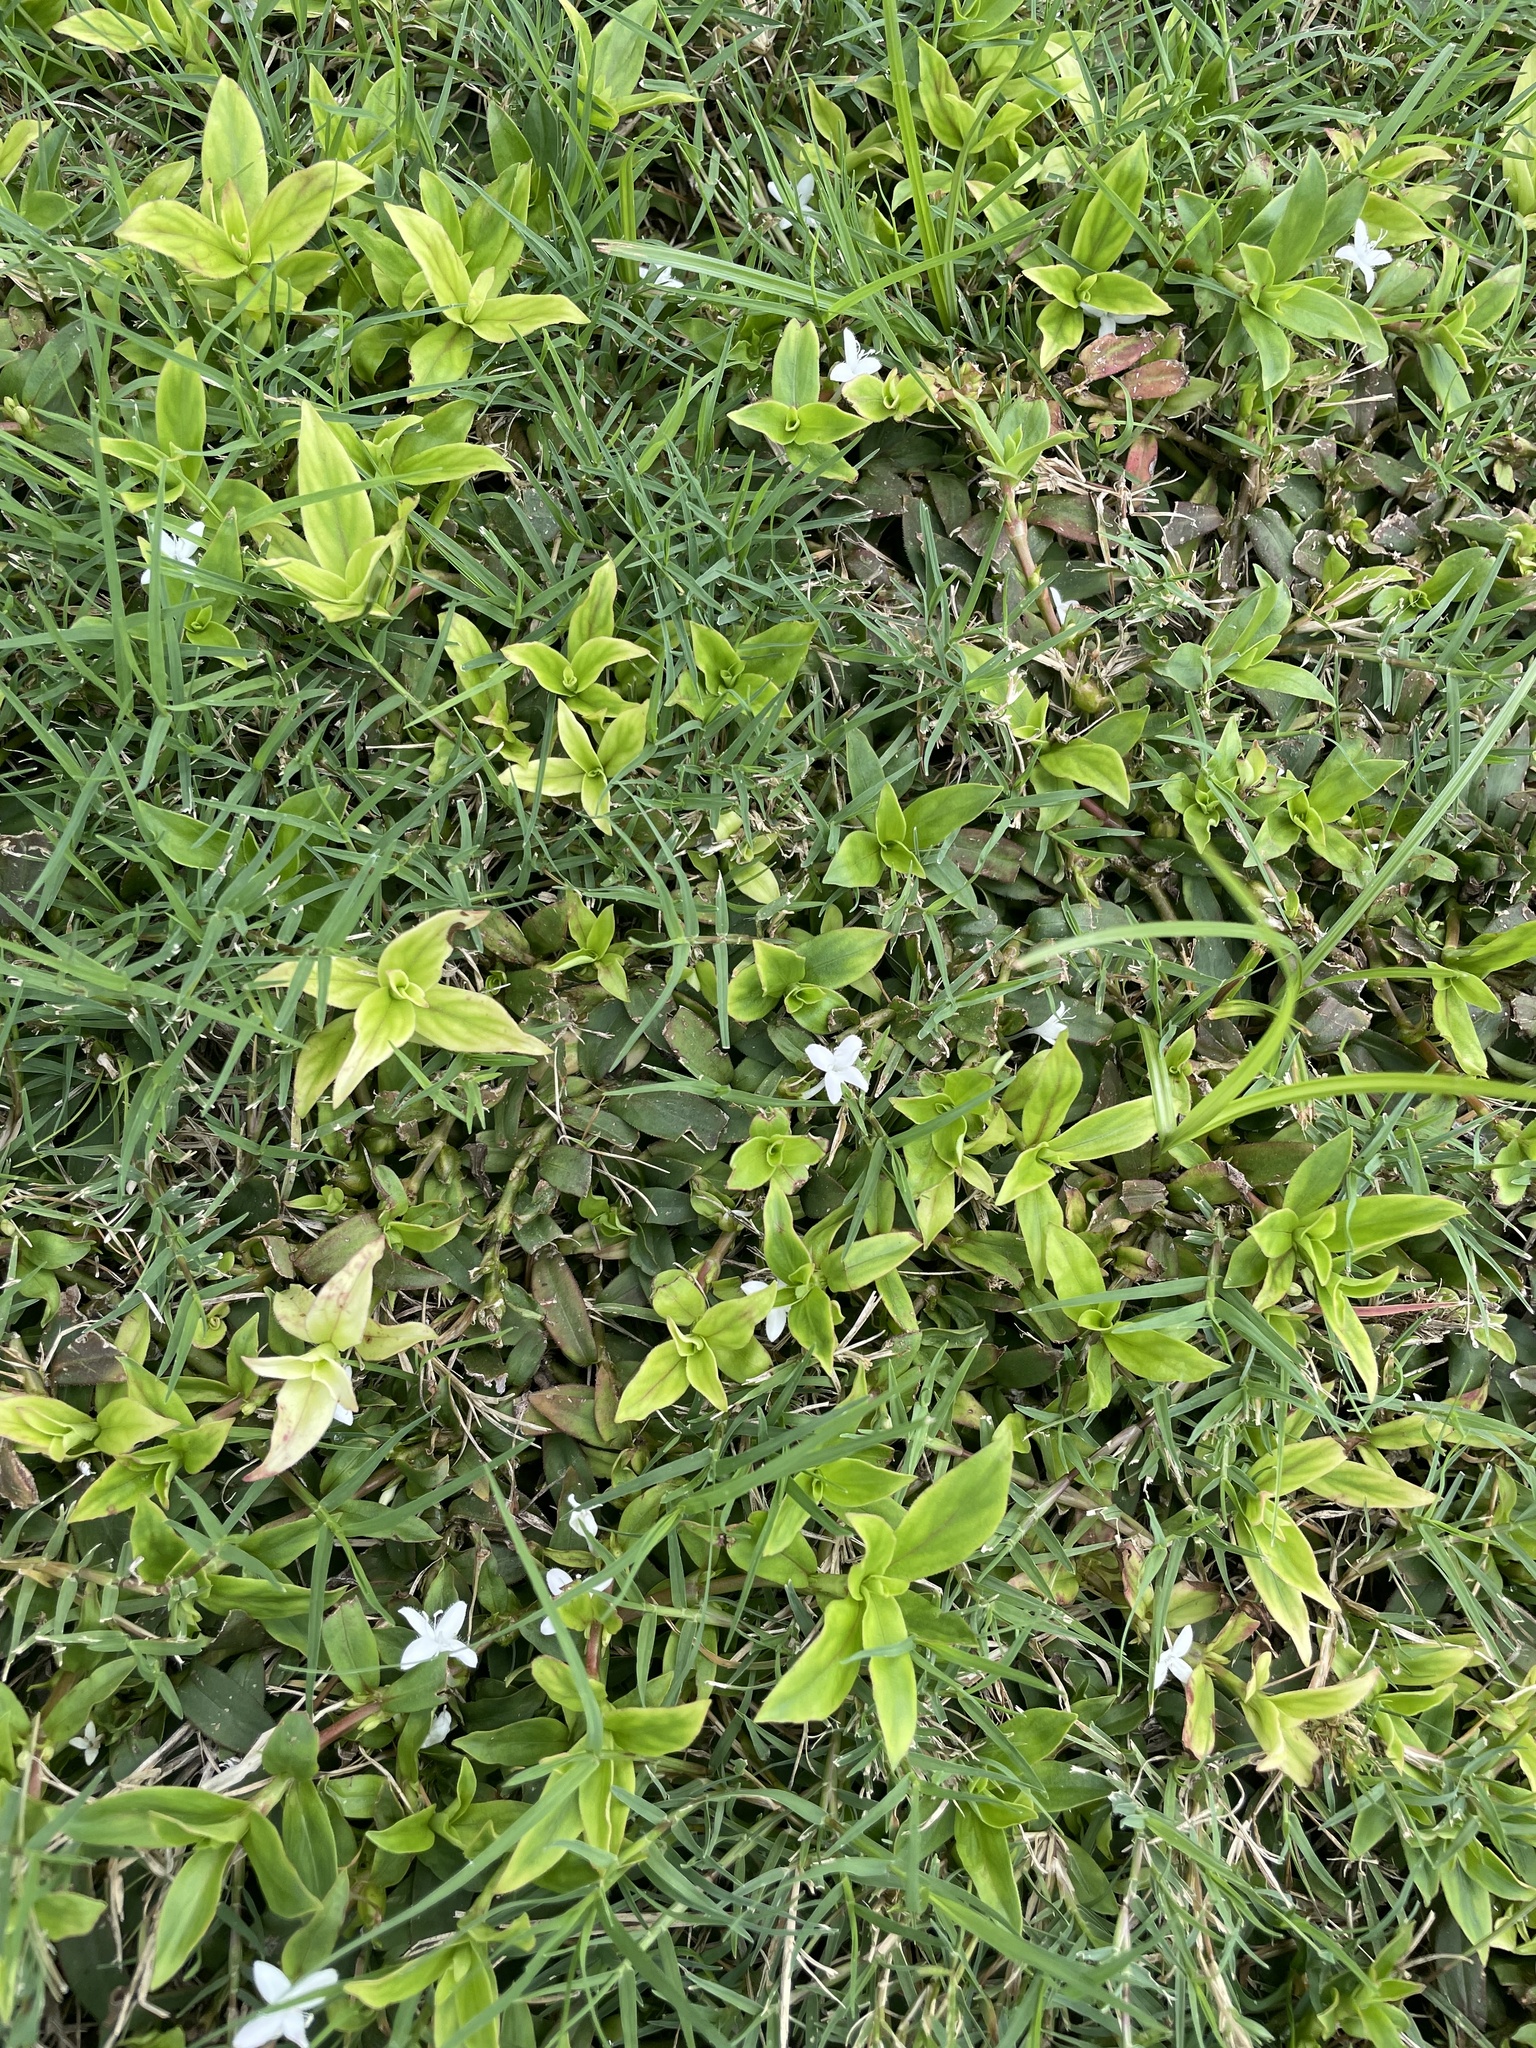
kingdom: Plantae
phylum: Tracheophyta
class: Magnoliopsida
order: Gentianales
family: Rubiaceae
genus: Diodia
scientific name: Diodia virginiana
